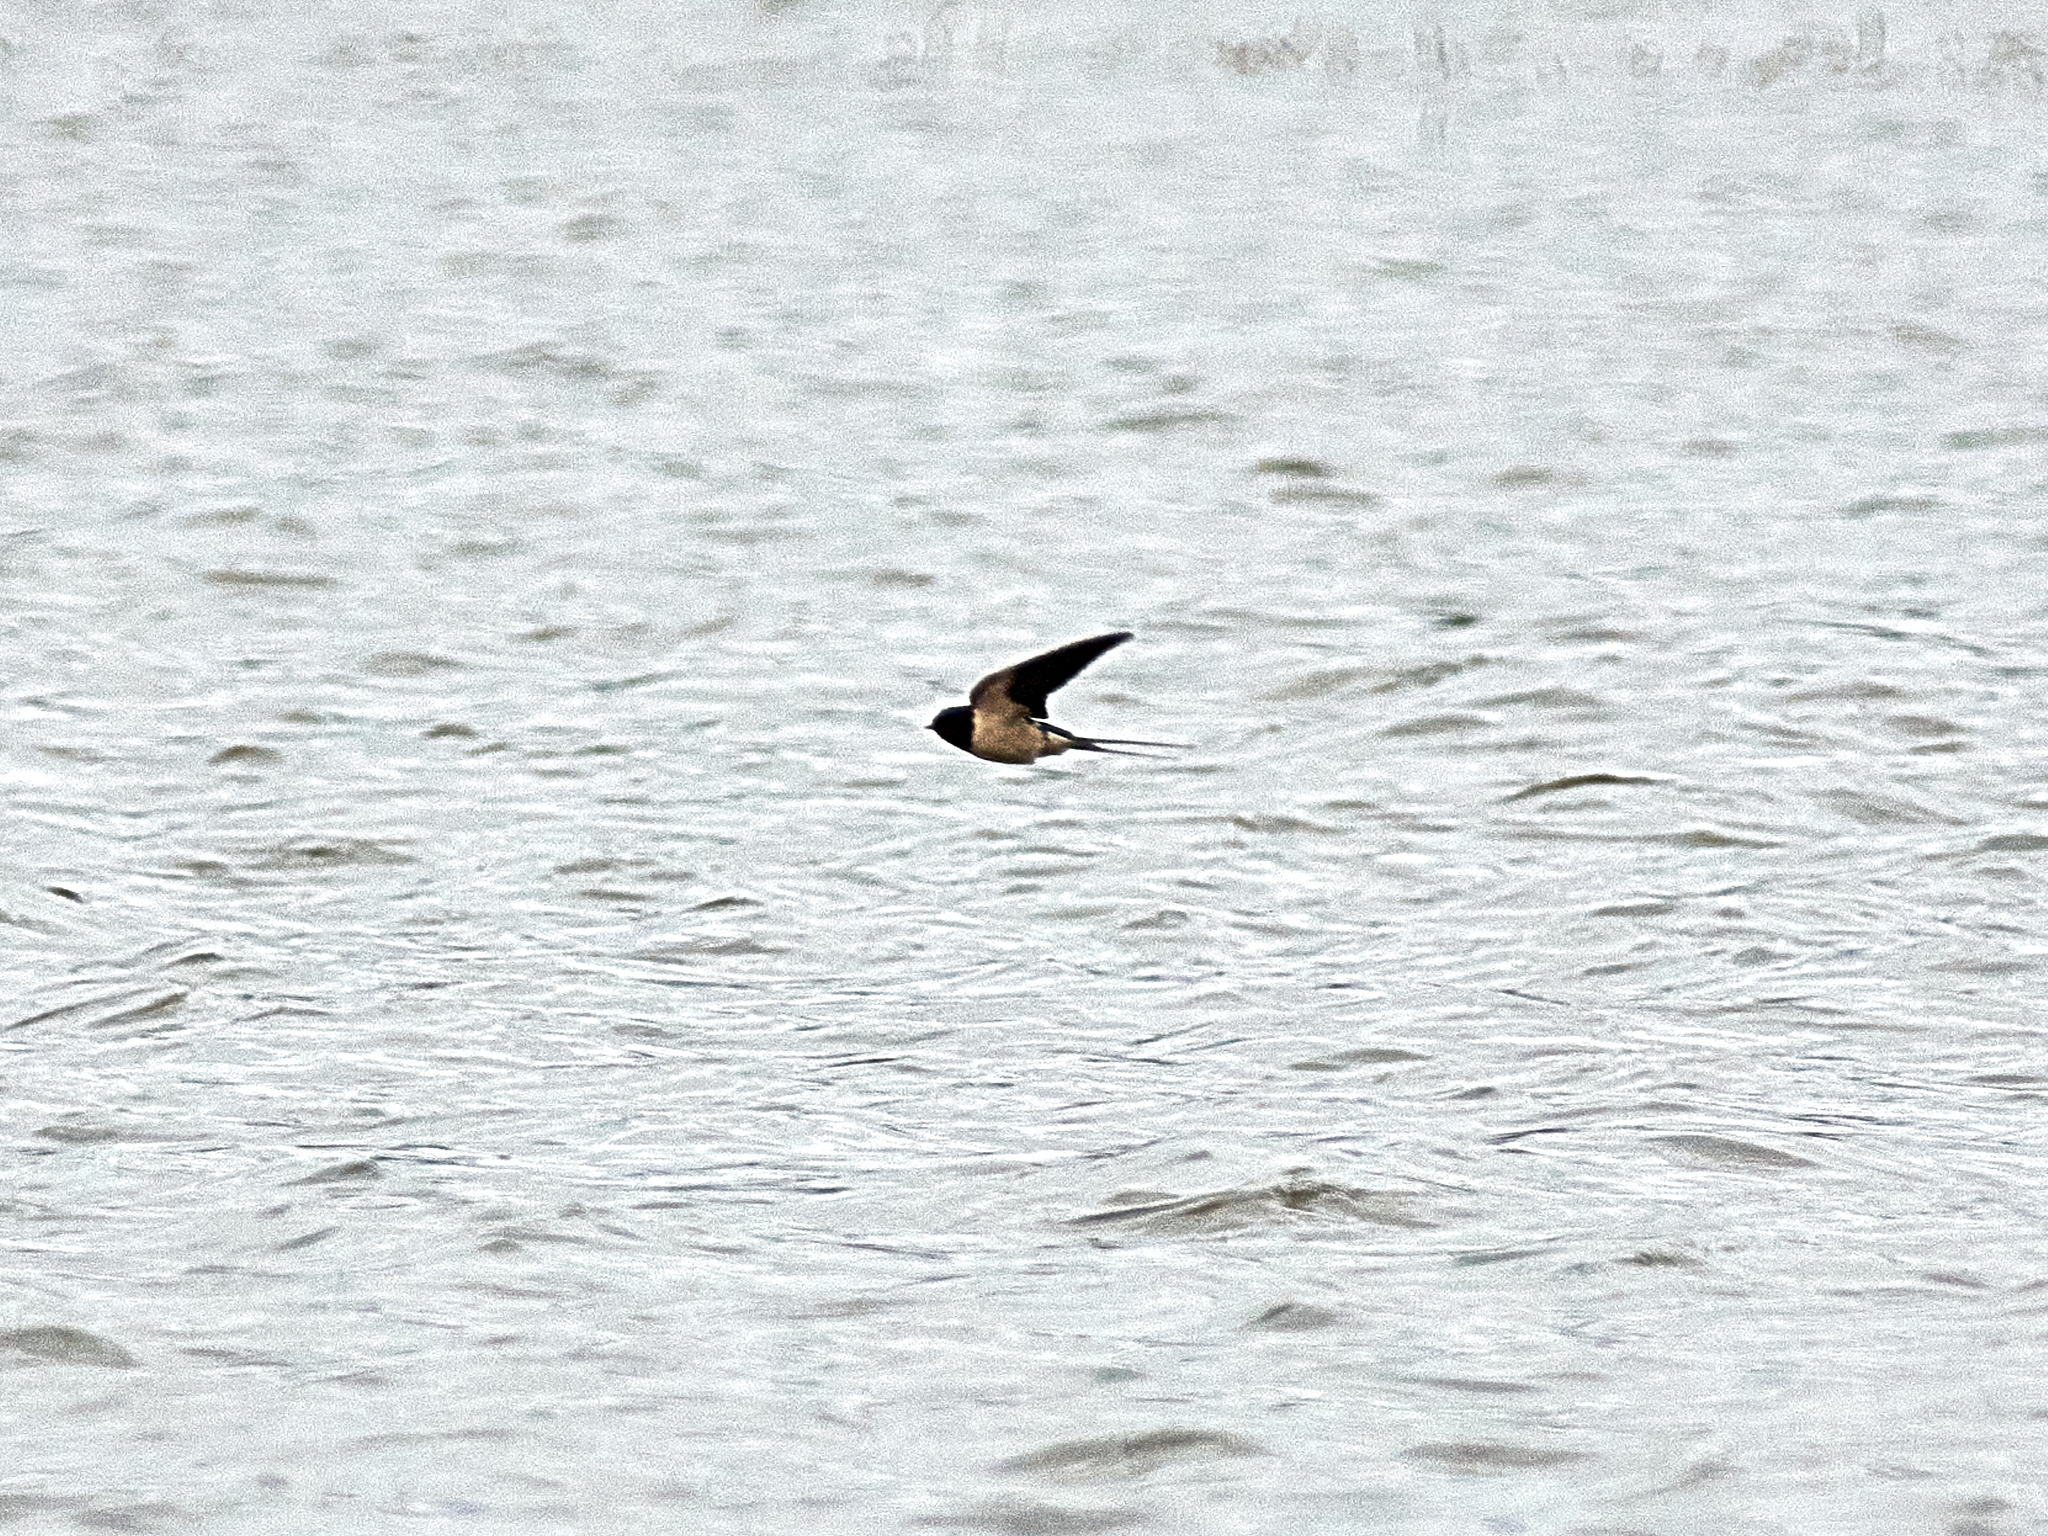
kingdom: Animalia
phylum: Chordata
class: Aves
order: Passeriformes
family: Hirundinidae
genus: Hirundo
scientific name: Hirundo rustica
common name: Barn swallow
